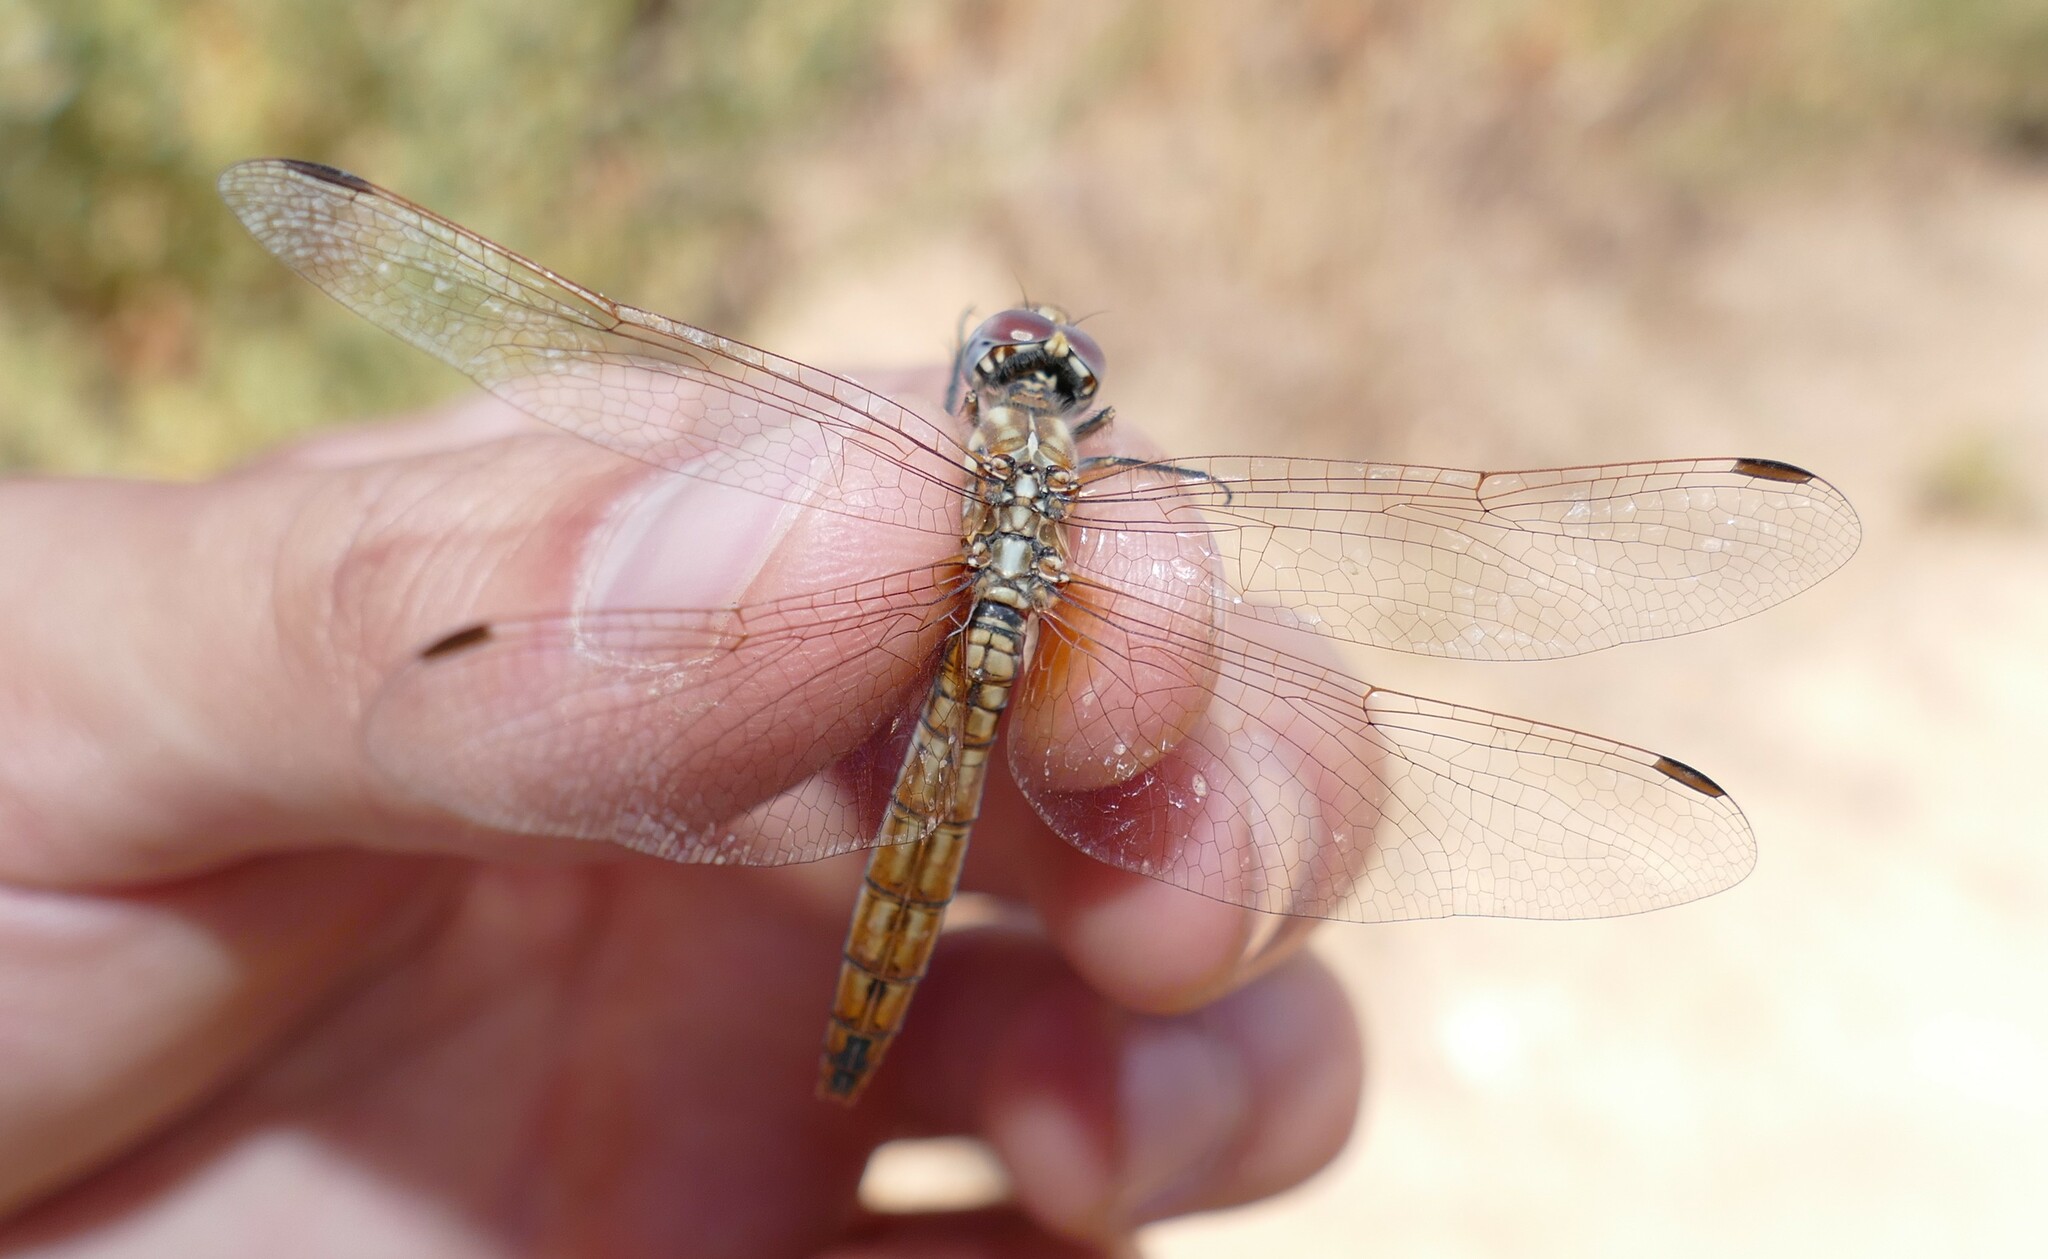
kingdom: Animalia
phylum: Arthropoda
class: Insecta
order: Odonata
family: Libellulidae
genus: Trithemis
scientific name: Trithemis annulata
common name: Violet dropwing
